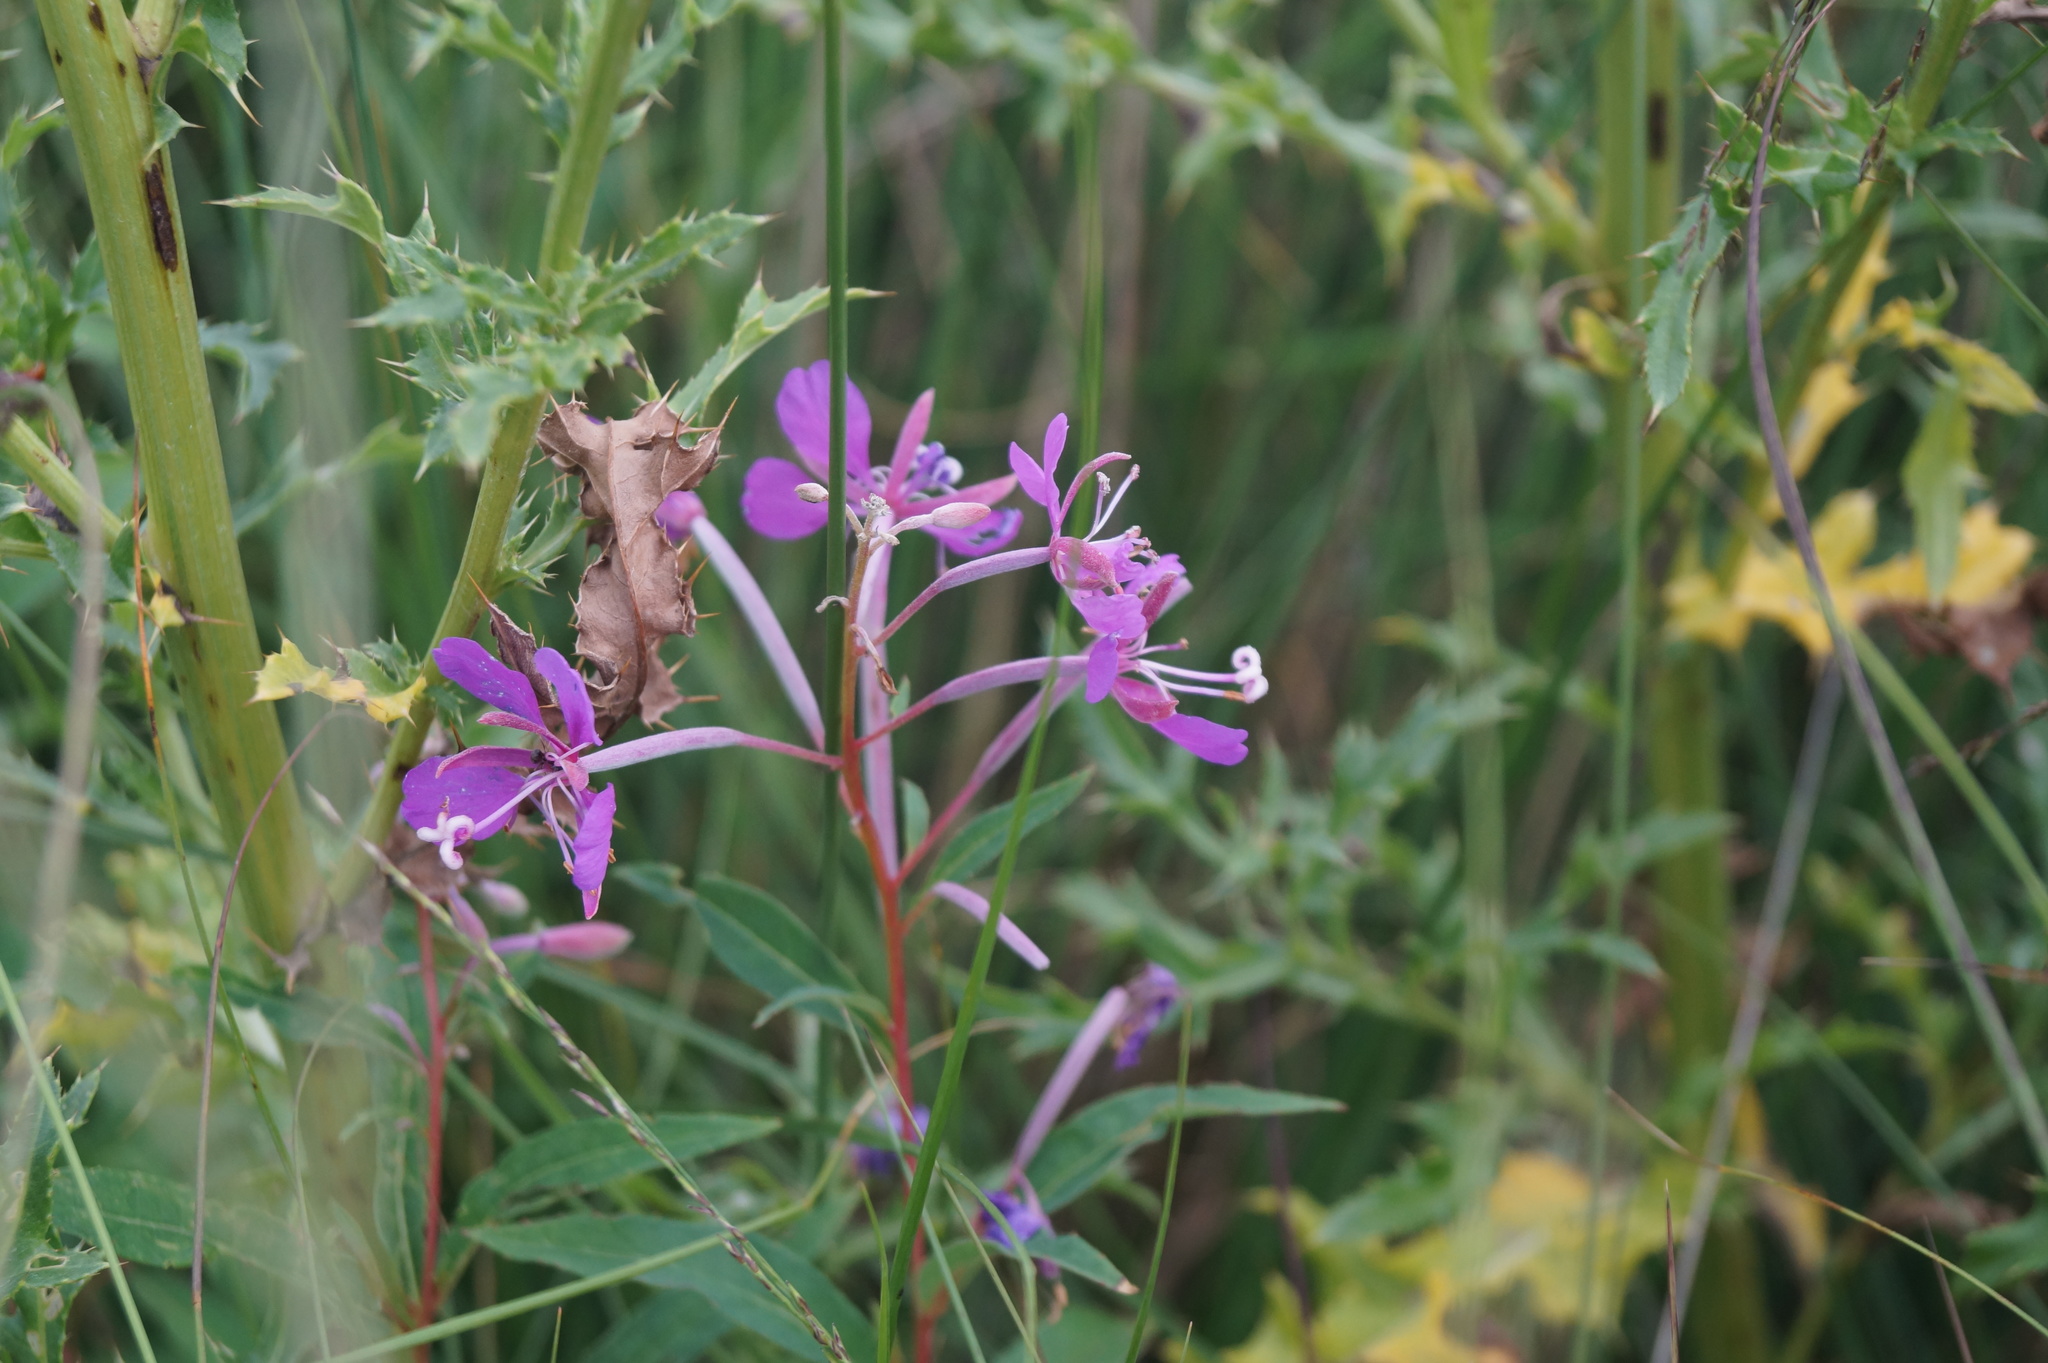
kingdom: Plantae
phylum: Tracheophyta
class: Magnoliopsida
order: Myrtales
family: Onagraceae
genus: Chamaenerion
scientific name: Chamaenerion angustifolium
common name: Fireweed
